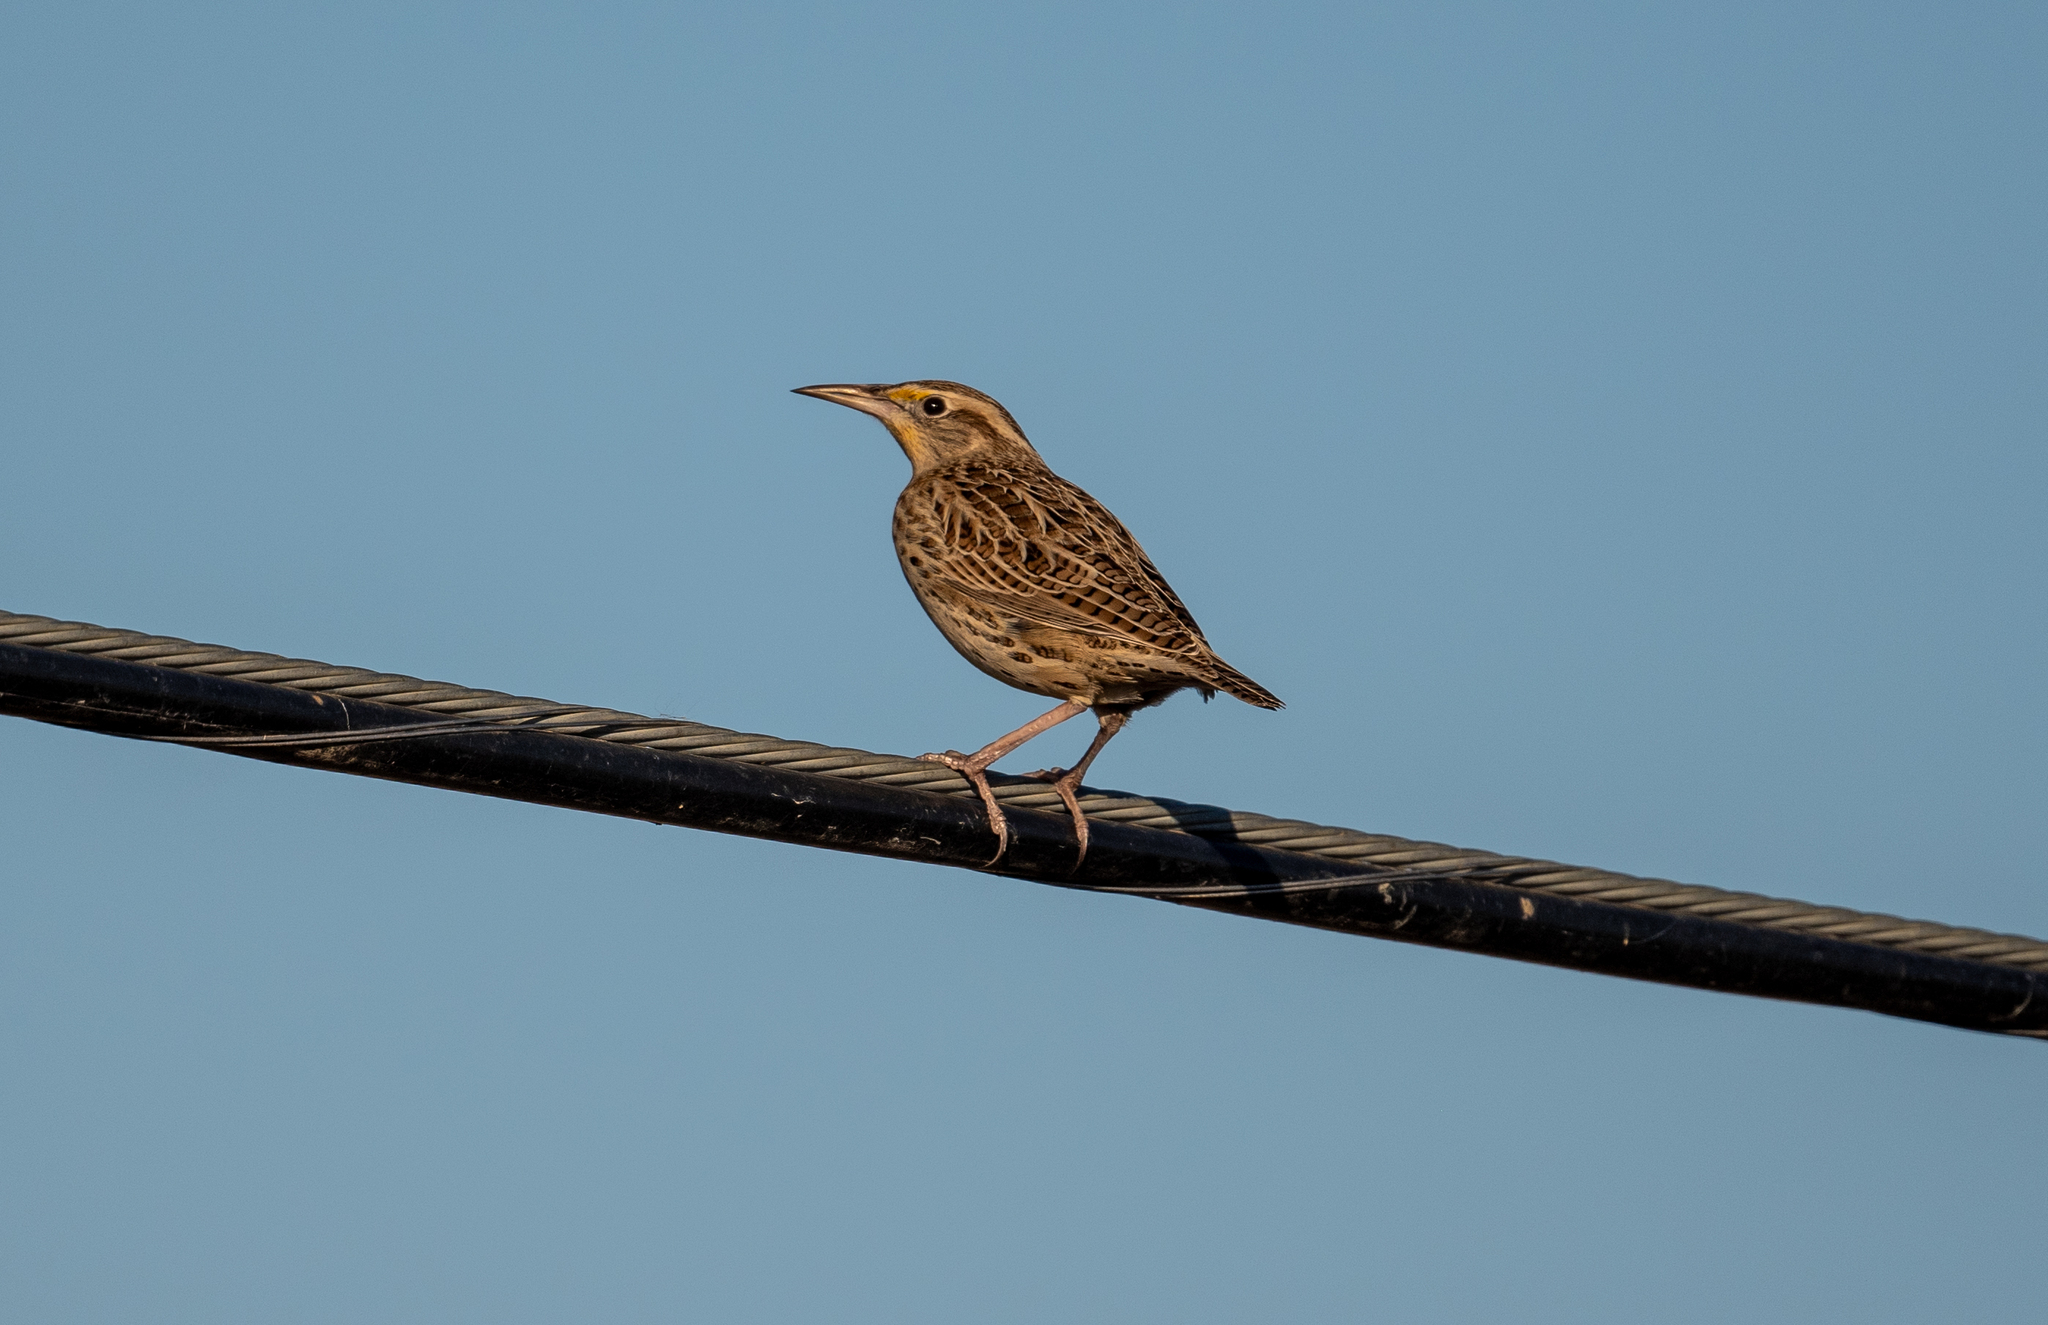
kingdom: Animalia
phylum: Chordata
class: Aves
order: Passeriformes
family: Icteridae
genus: Sturnella
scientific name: Sturnella neglecta
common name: Western meadowlark
